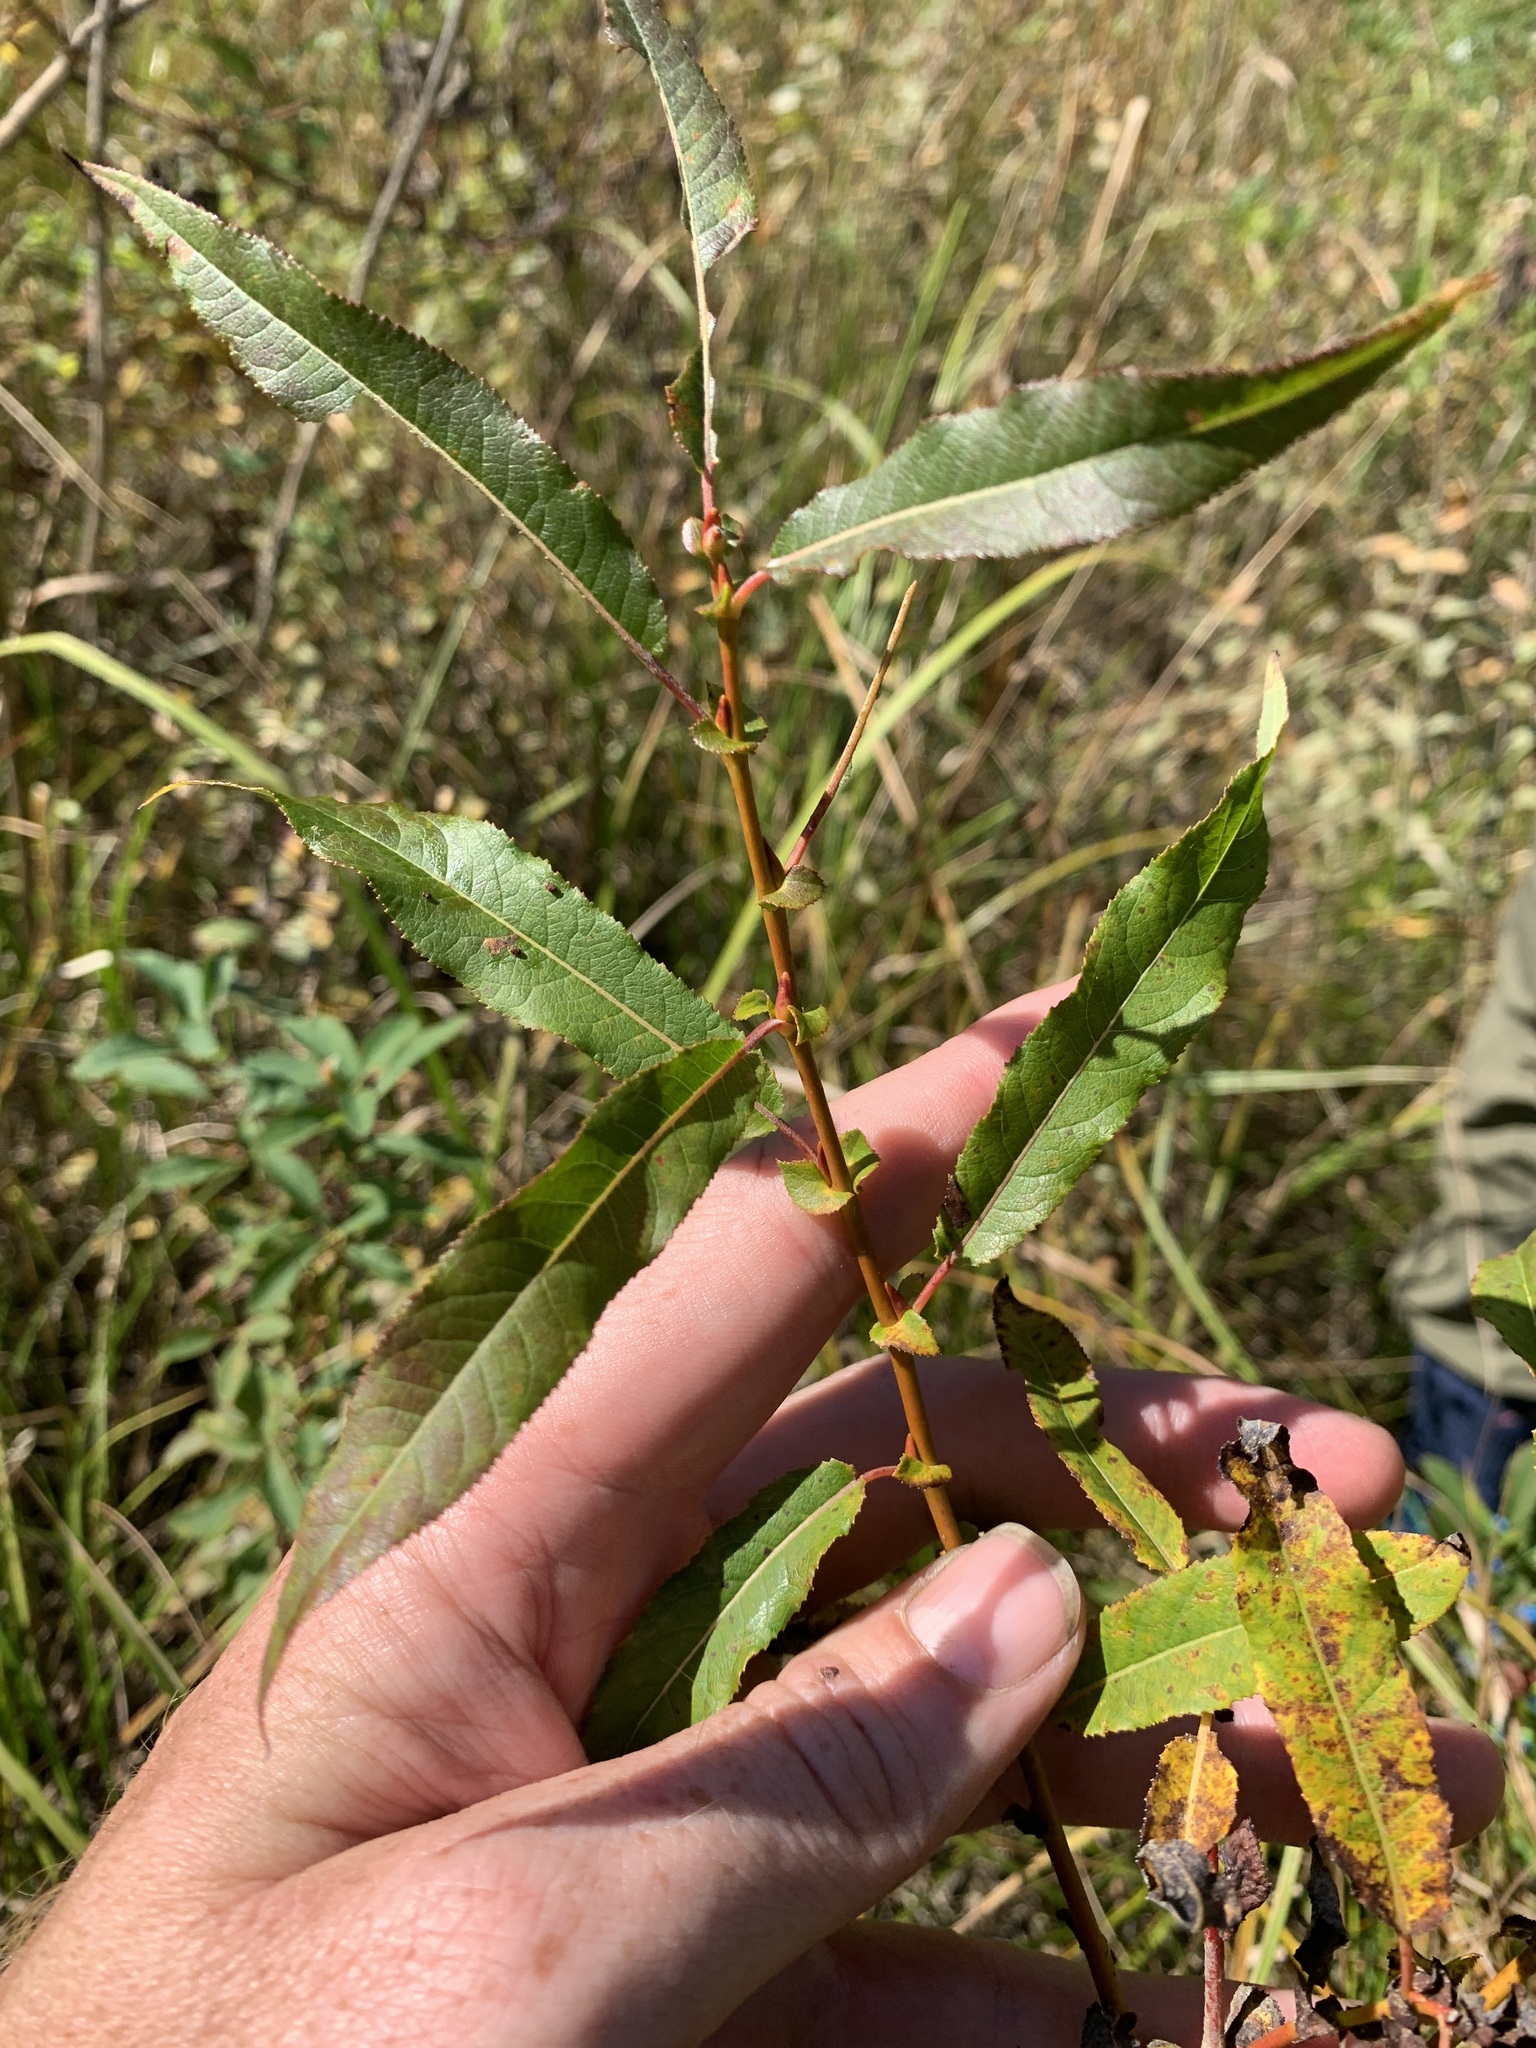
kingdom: Plantae
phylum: Tracheophyta
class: Magnoliopsida
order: Malpighiales
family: Salicaceae
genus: Salix
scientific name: Salix eriocephala
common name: Heart-leaved willow
